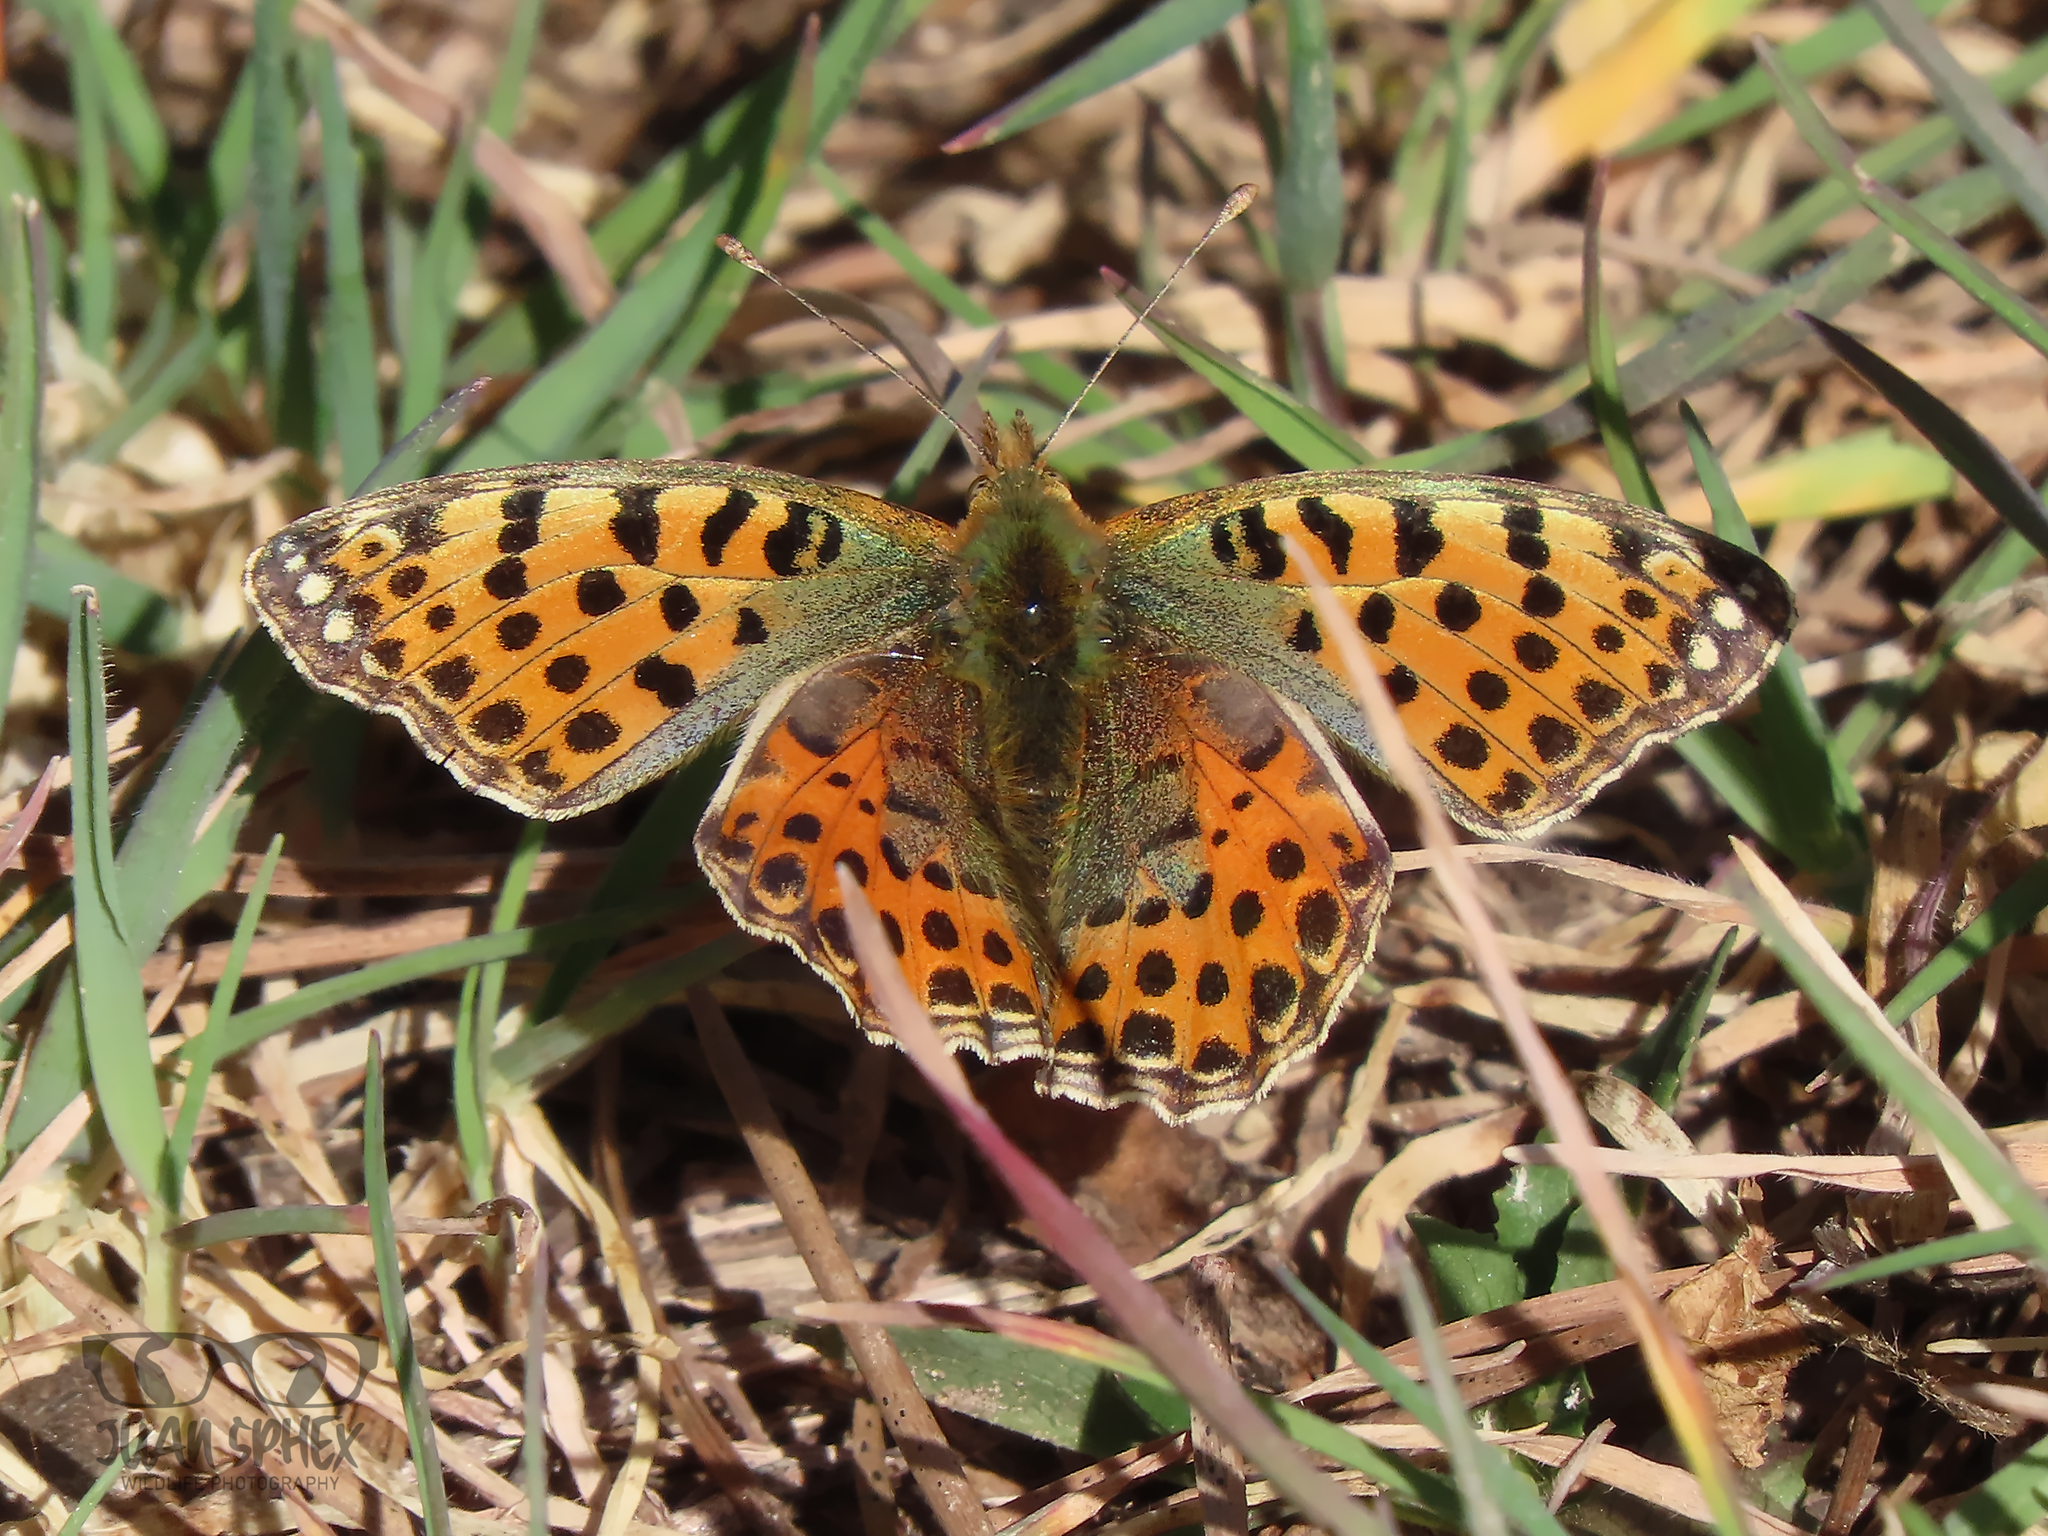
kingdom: Animalia
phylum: Arthropoda
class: Insecta
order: Lepidoptera
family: Nymphalidae
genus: Issoria
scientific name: Issoria lathonia
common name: Queen of spain fritillary
